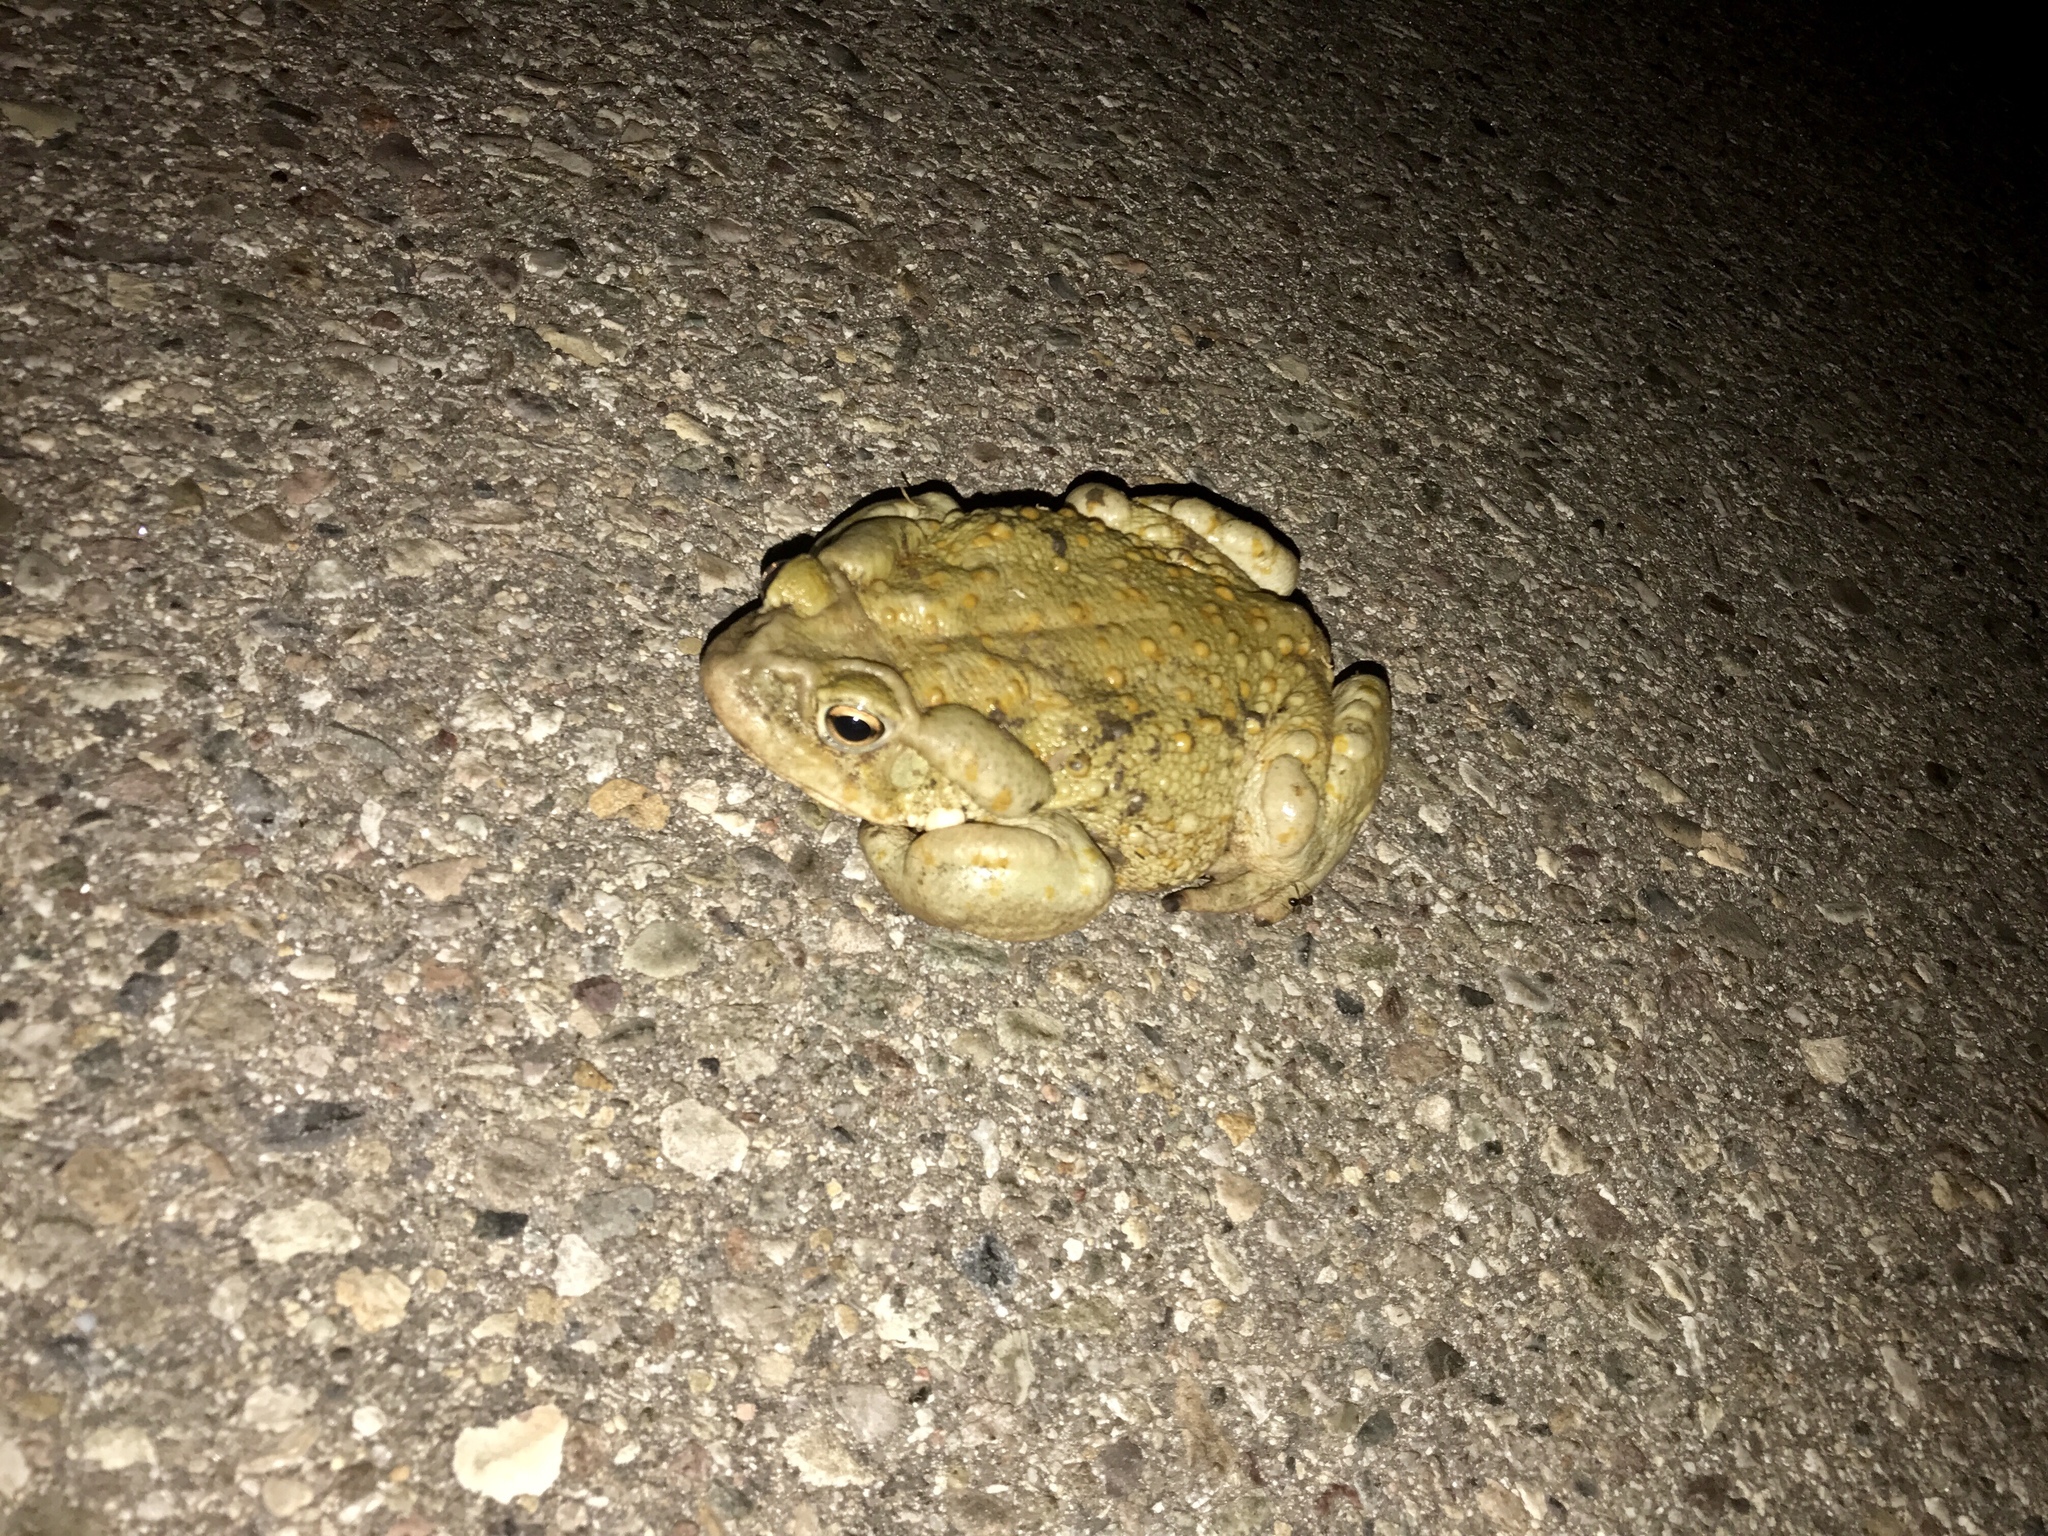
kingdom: Animalia
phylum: Chordata
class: Amphibia
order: Anura
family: Bufonidae
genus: Incilius
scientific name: Incilius alvarius
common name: Sonoran desert toad
